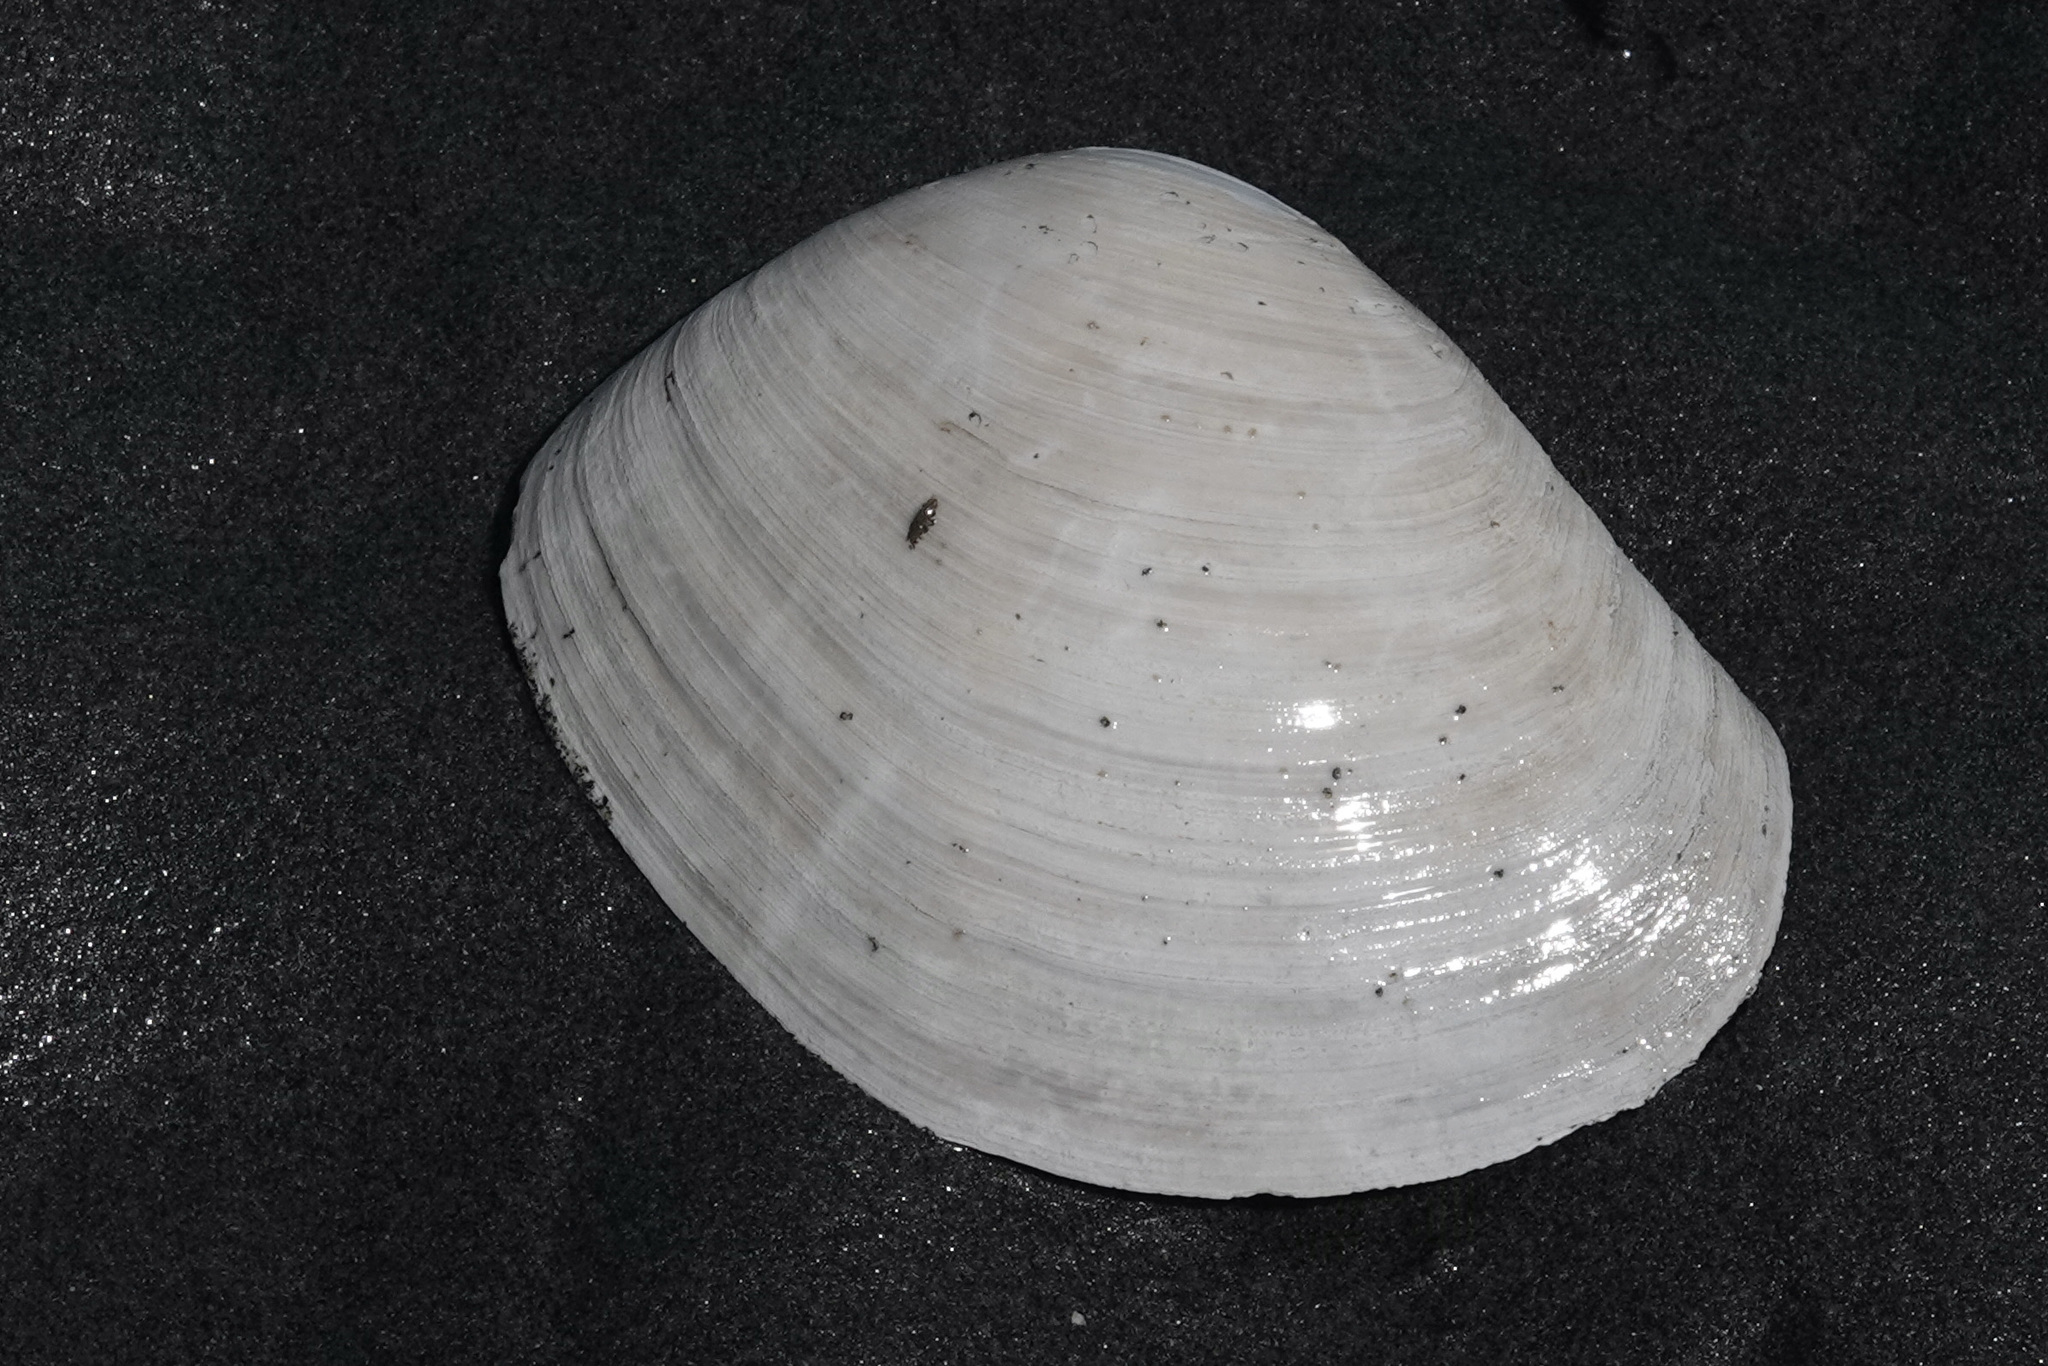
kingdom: Animalia
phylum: Mollusca
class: Bivalvia
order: Venerida
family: Mactridae
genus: Tresus
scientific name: Tresus capax
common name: Fat gaper
